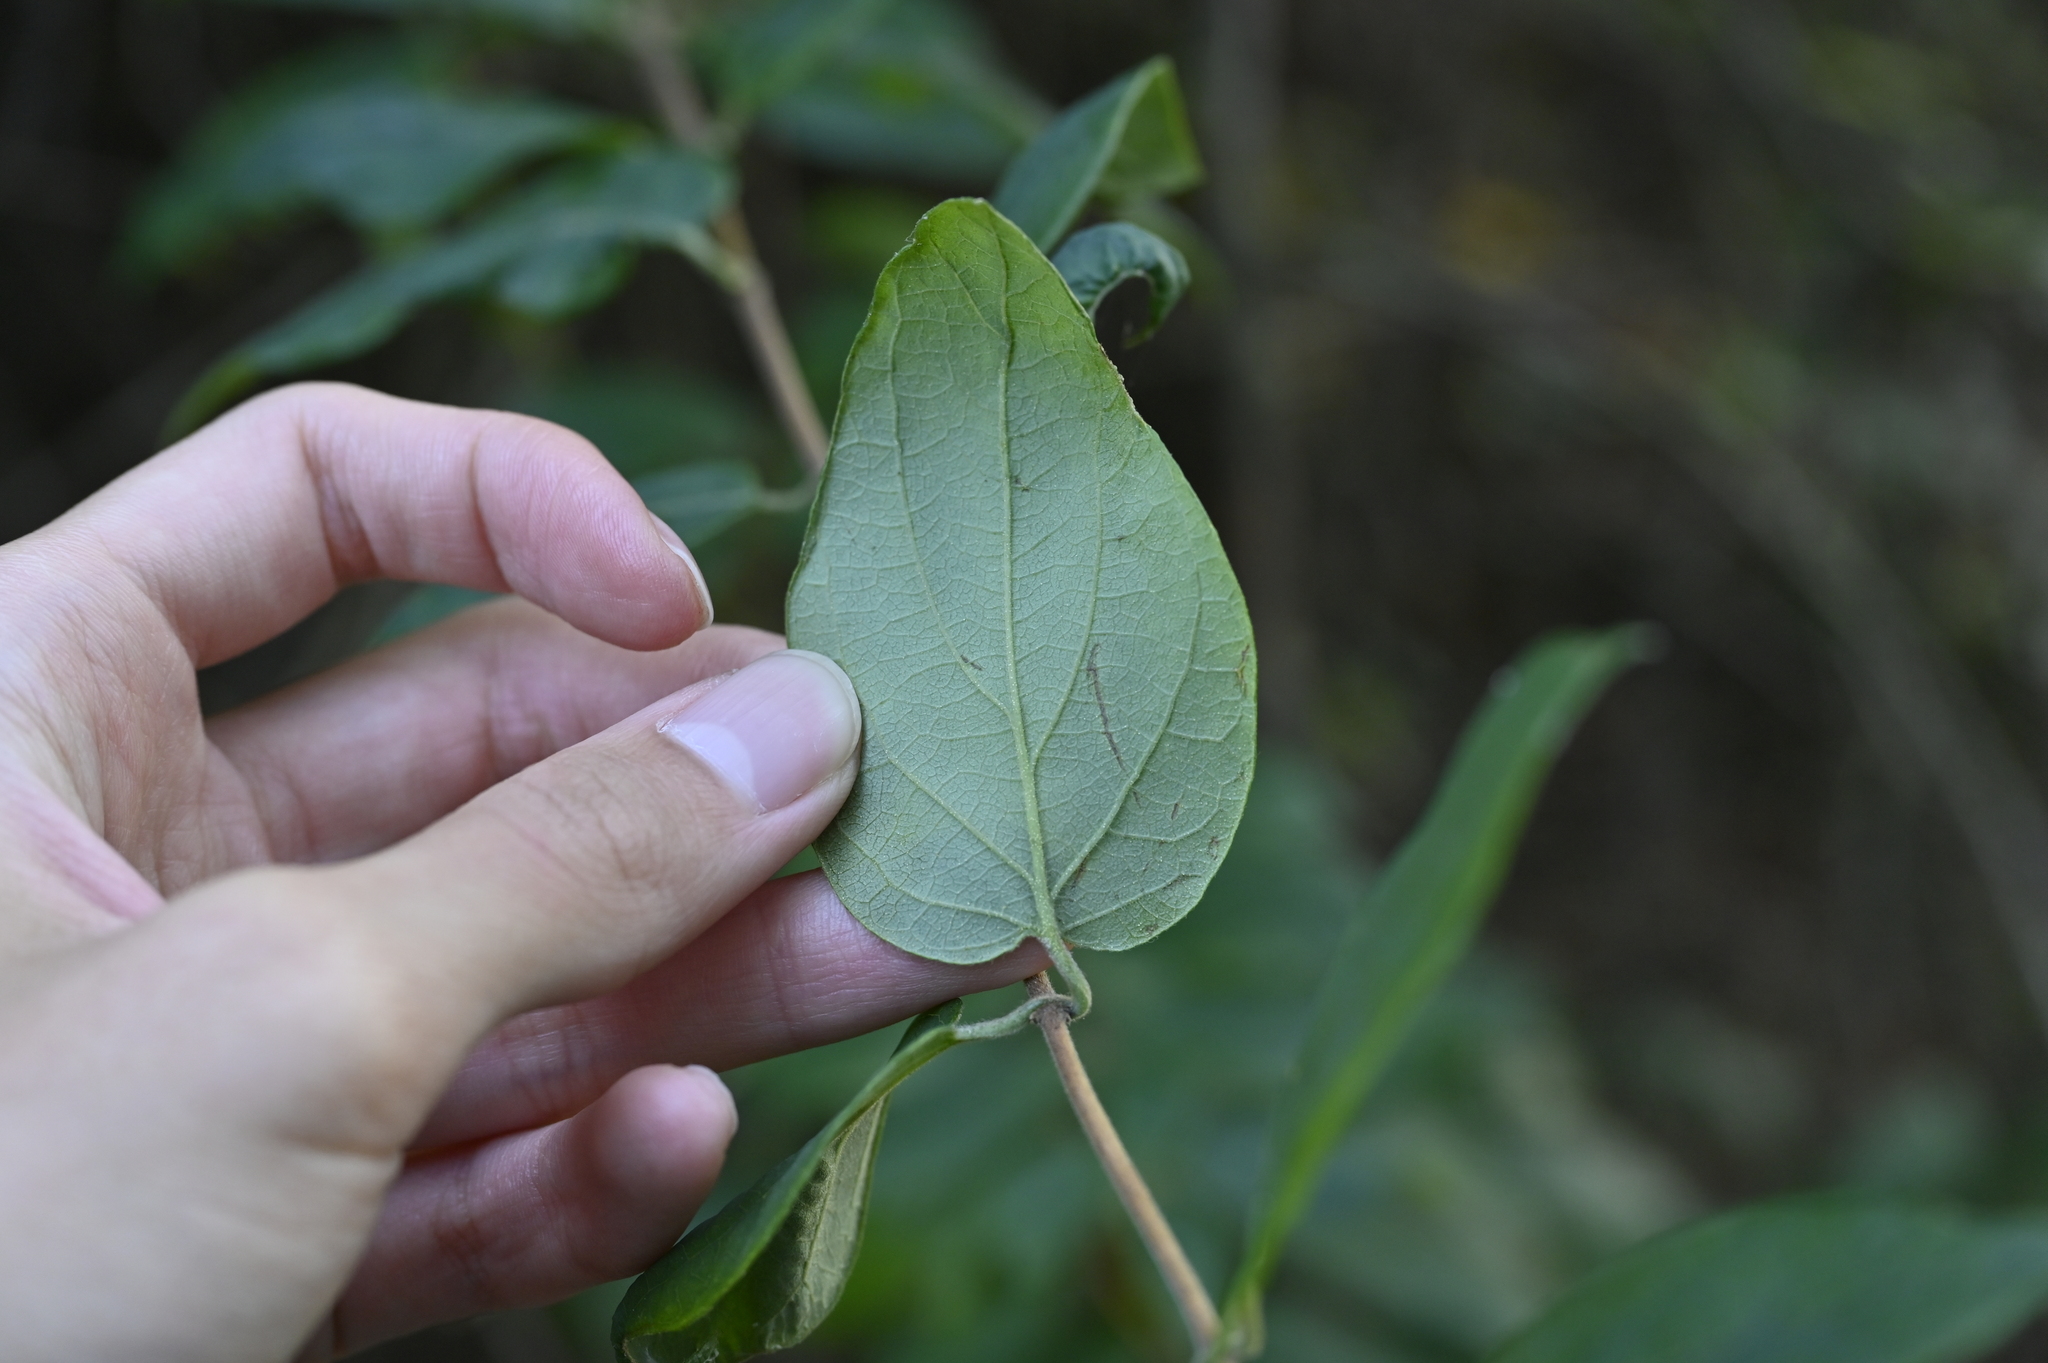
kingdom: Plantae
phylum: Tracheophyta
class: Magnoliopsida
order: Dipsacales
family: Caprifoliaceae
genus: Lonicera
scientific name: Lonicera hypoglauca
